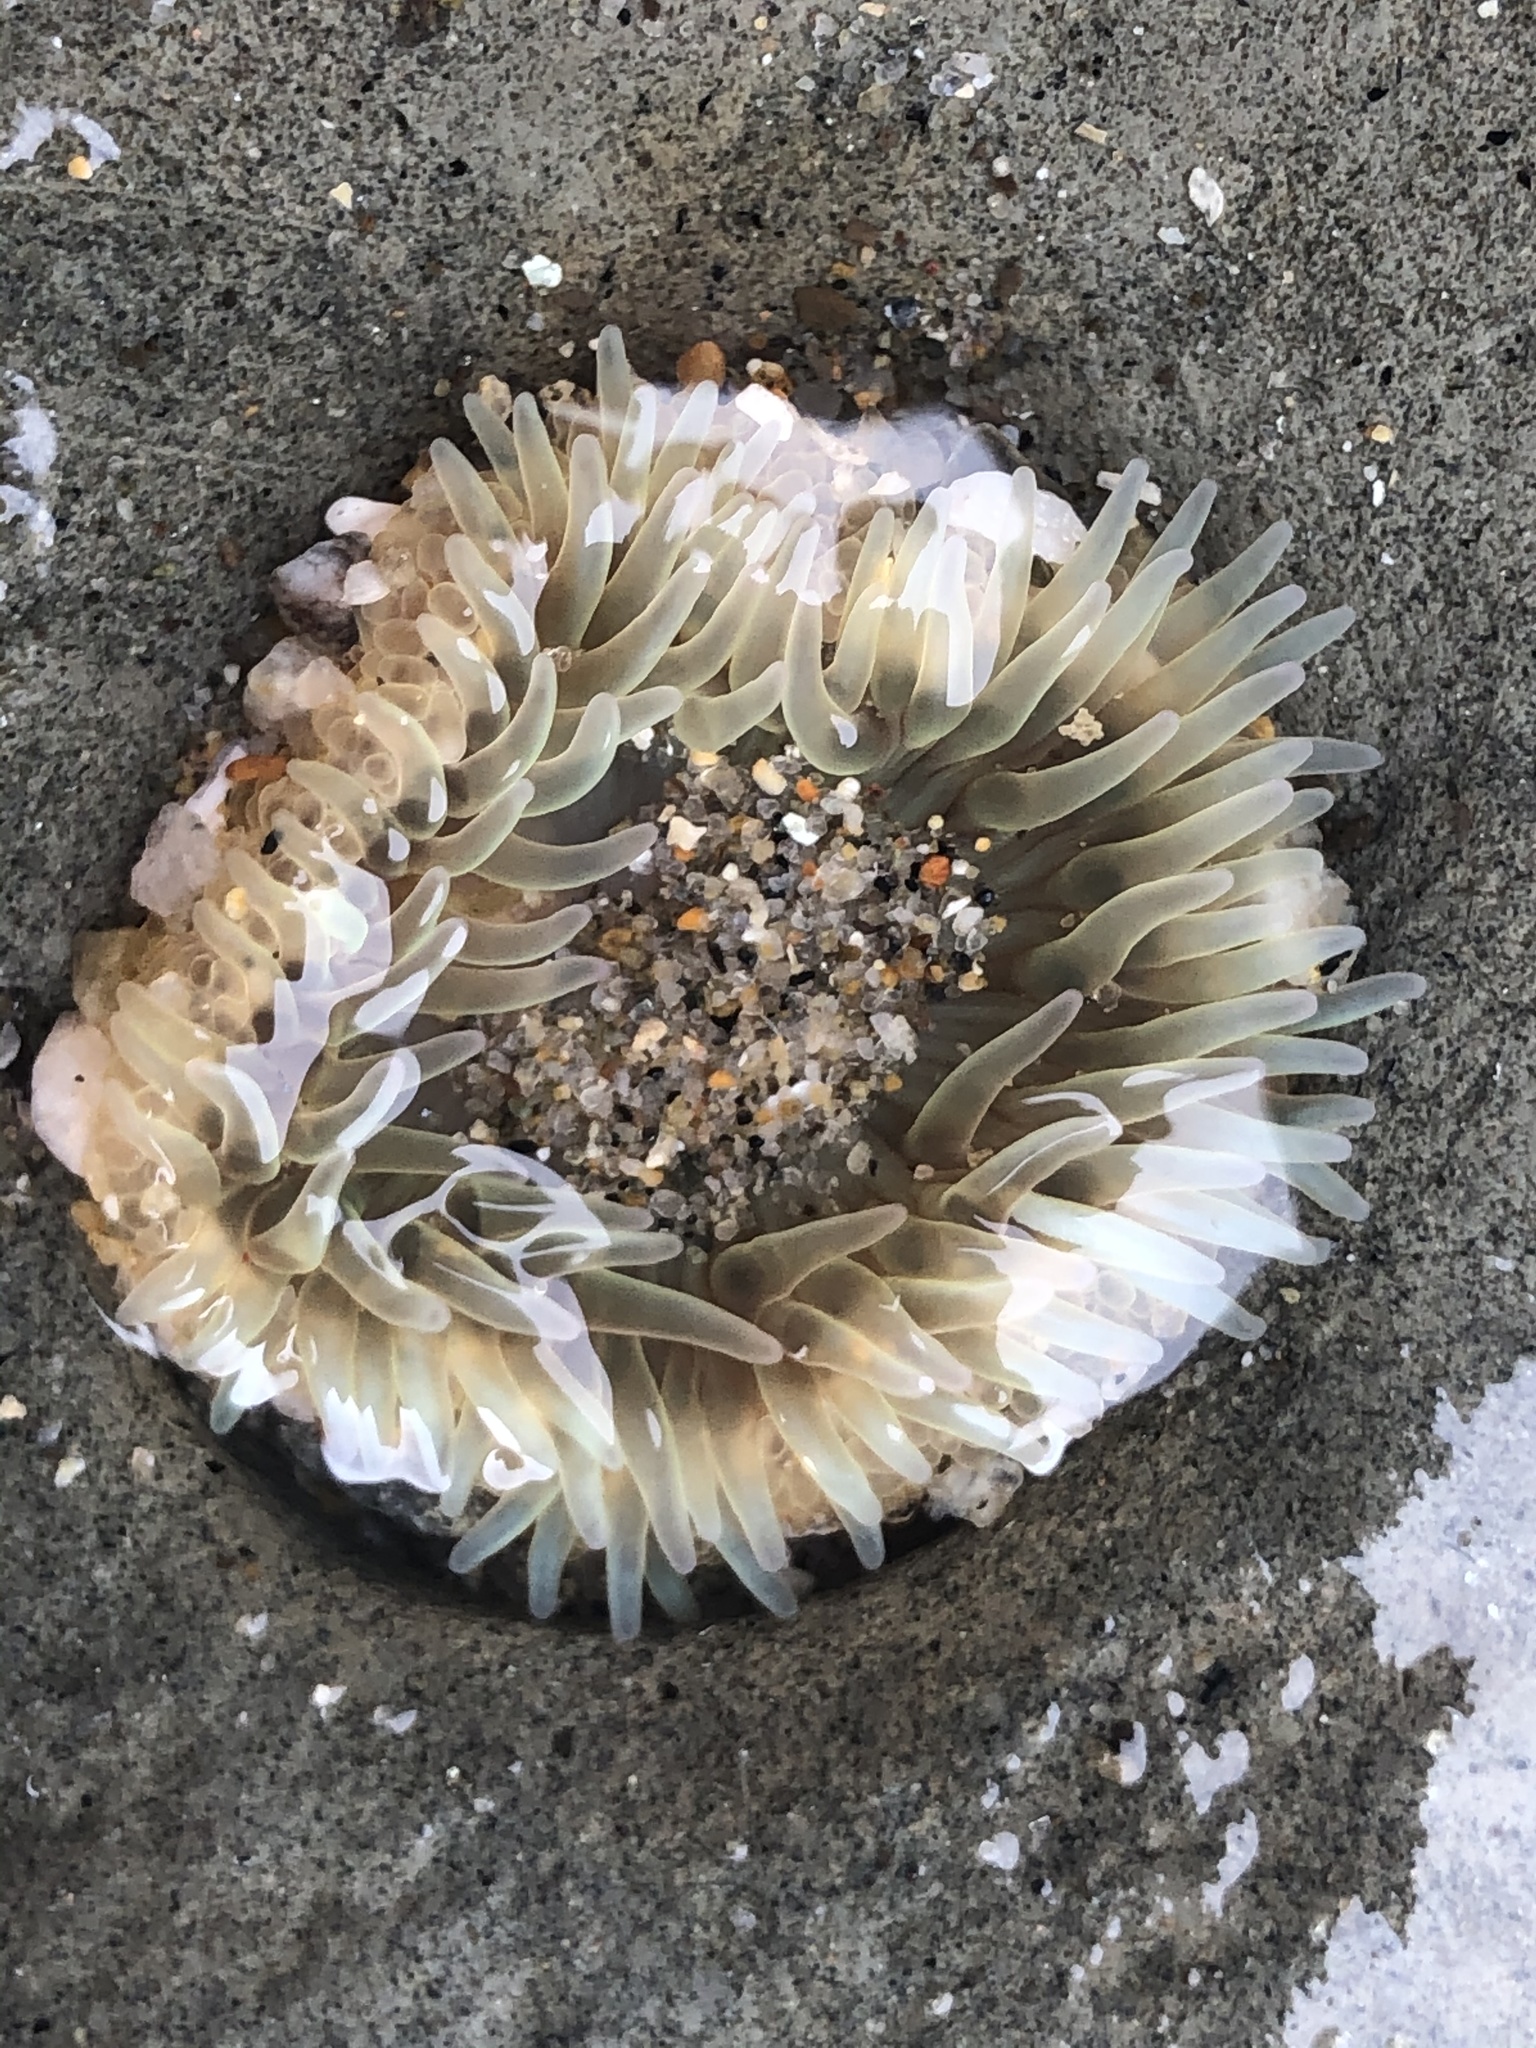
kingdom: Animalia
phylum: Cnidaria
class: Anthozoa
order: Actiniaria
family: Actiniidae
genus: Anthopleura
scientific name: Anthopleura elegantissima
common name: Clonal anemone
